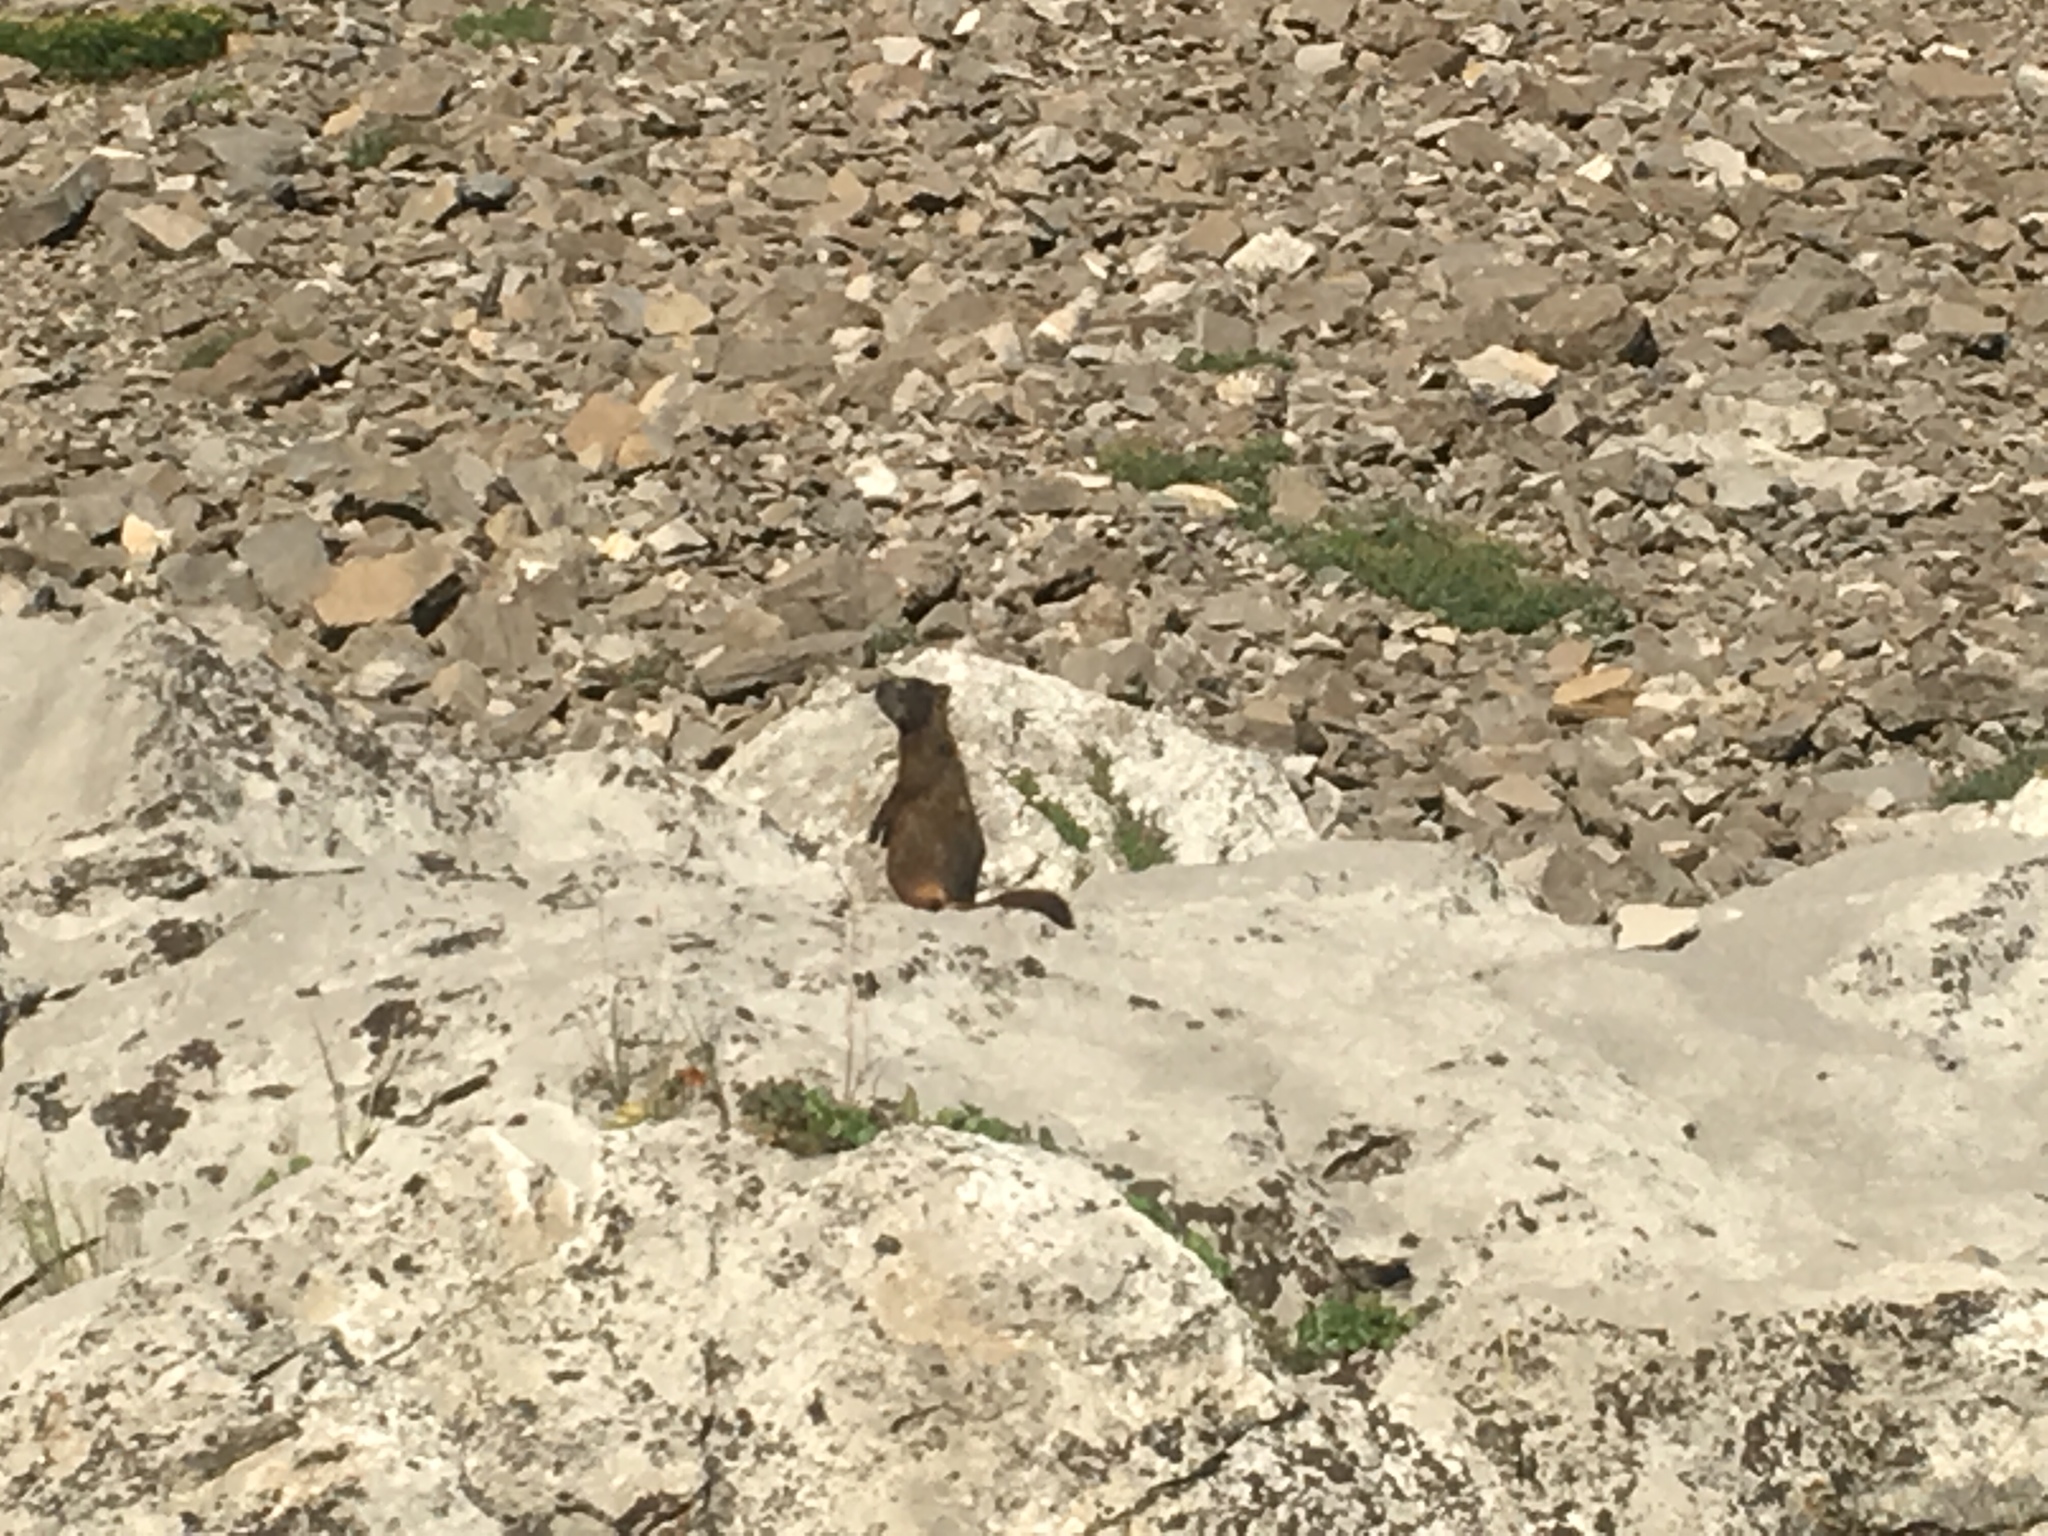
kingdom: Animalia
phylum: Chordata
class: Mammalia
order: Rodentia
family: Sciuridae
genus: Marmota
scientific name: Marmota flaviventris
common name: Yellow-bellied marmot
